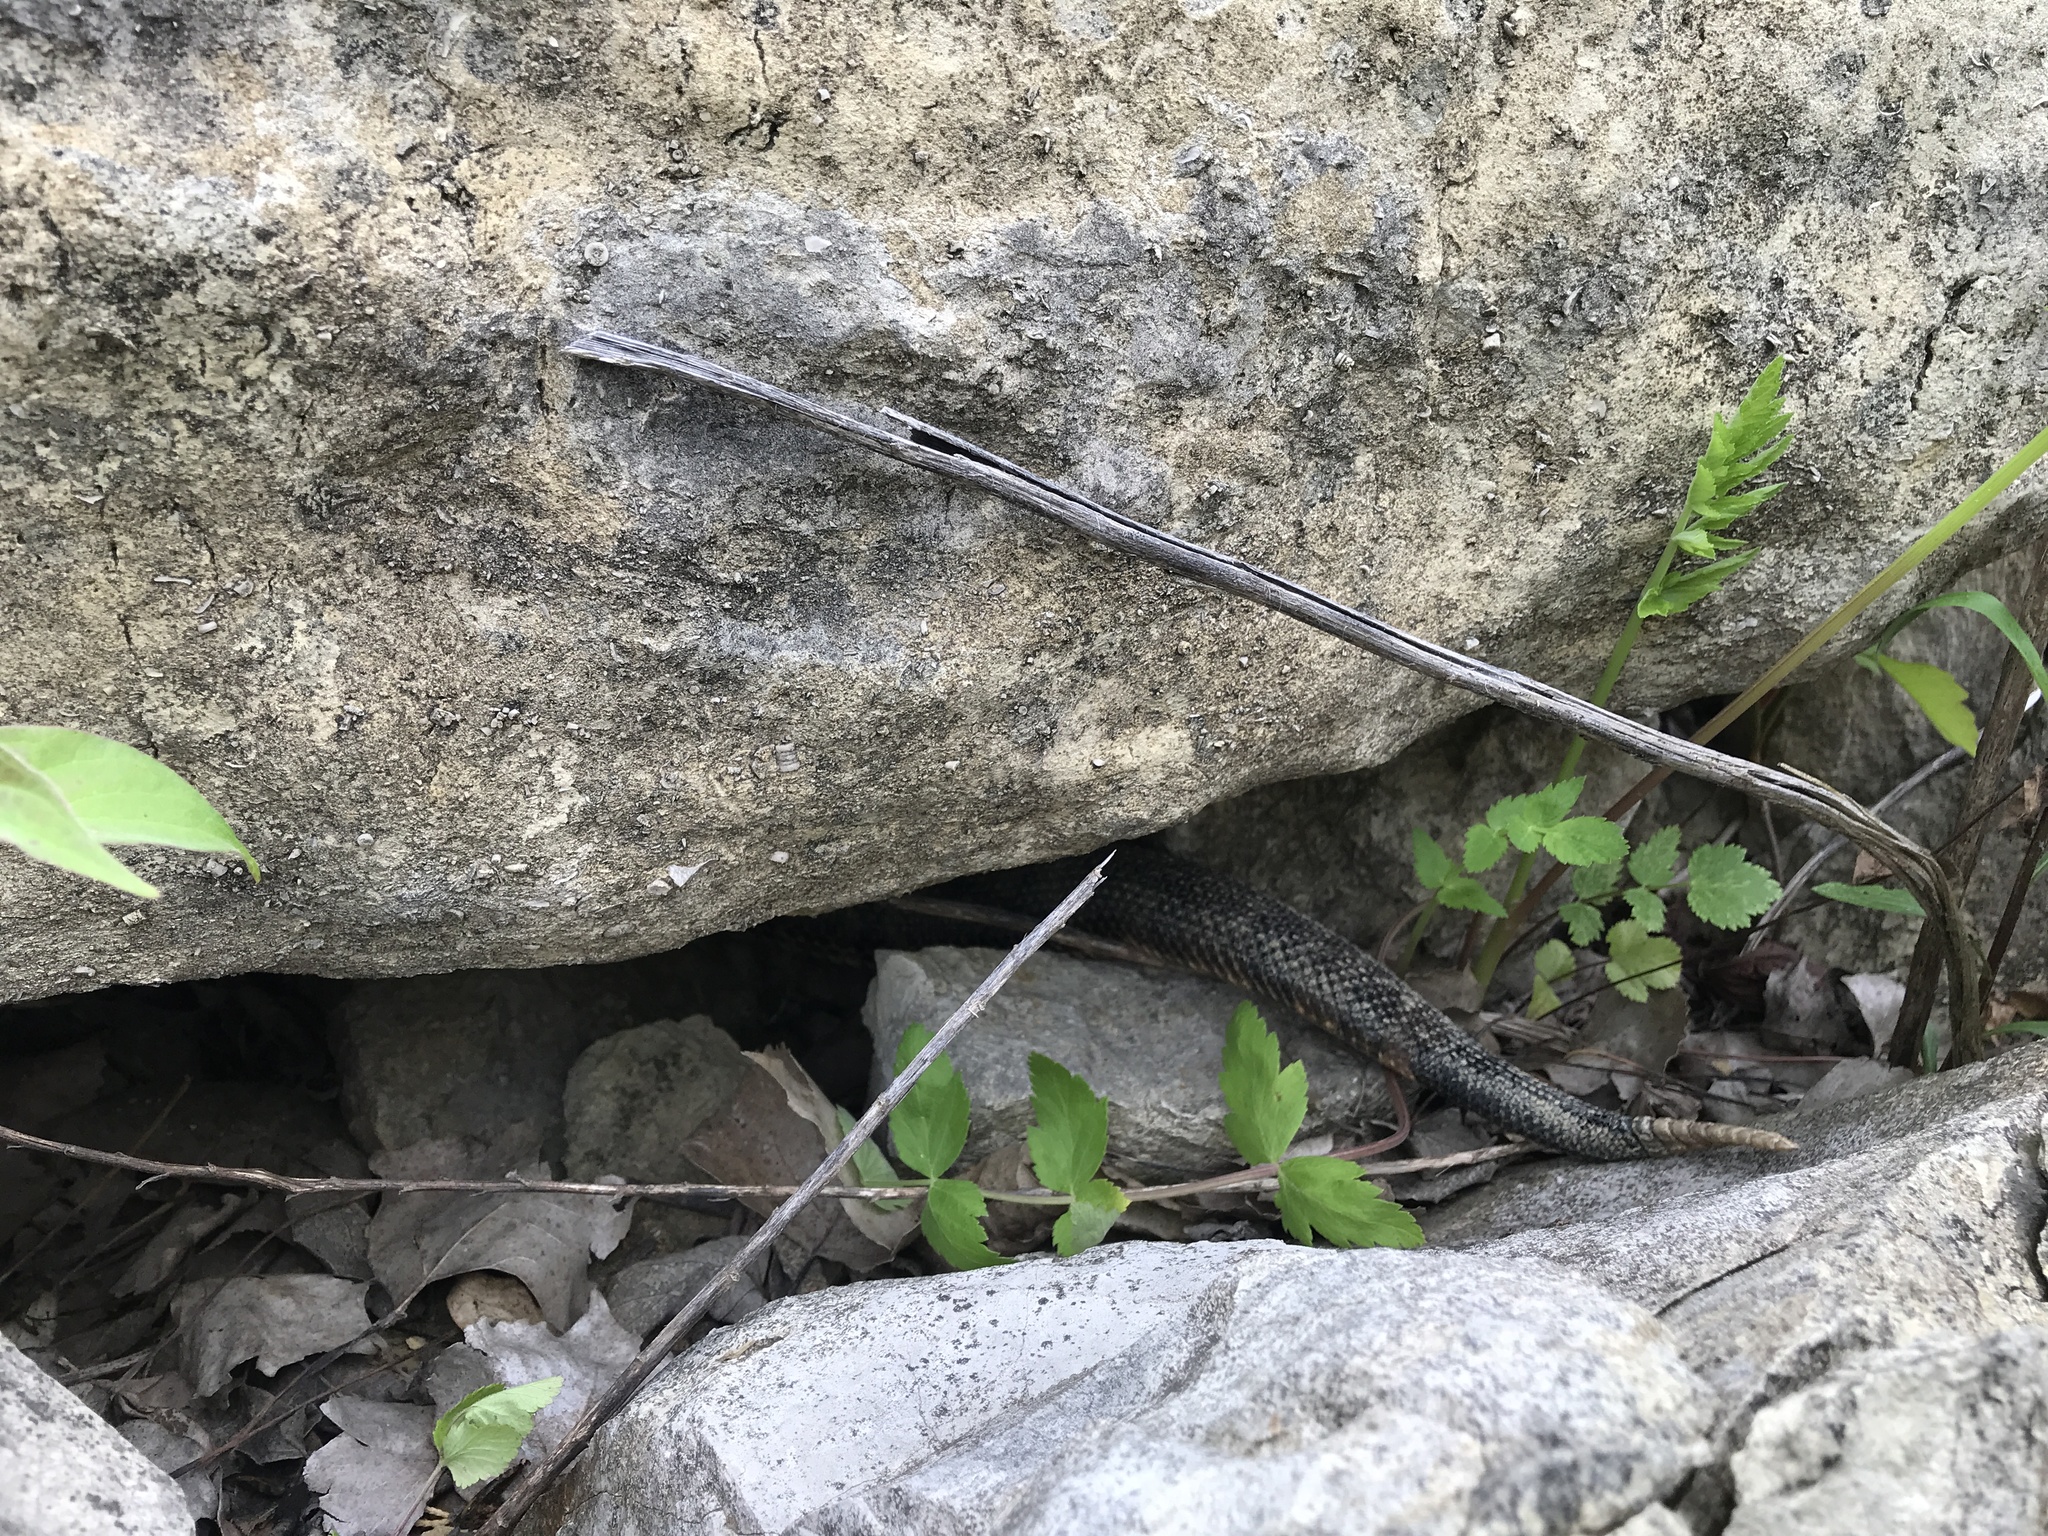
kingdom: Animalia
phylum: Chordata
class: Squamata
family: Viperidae
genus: Crotalus
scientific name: Crotalus horridus
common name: Timber rattlesnake
